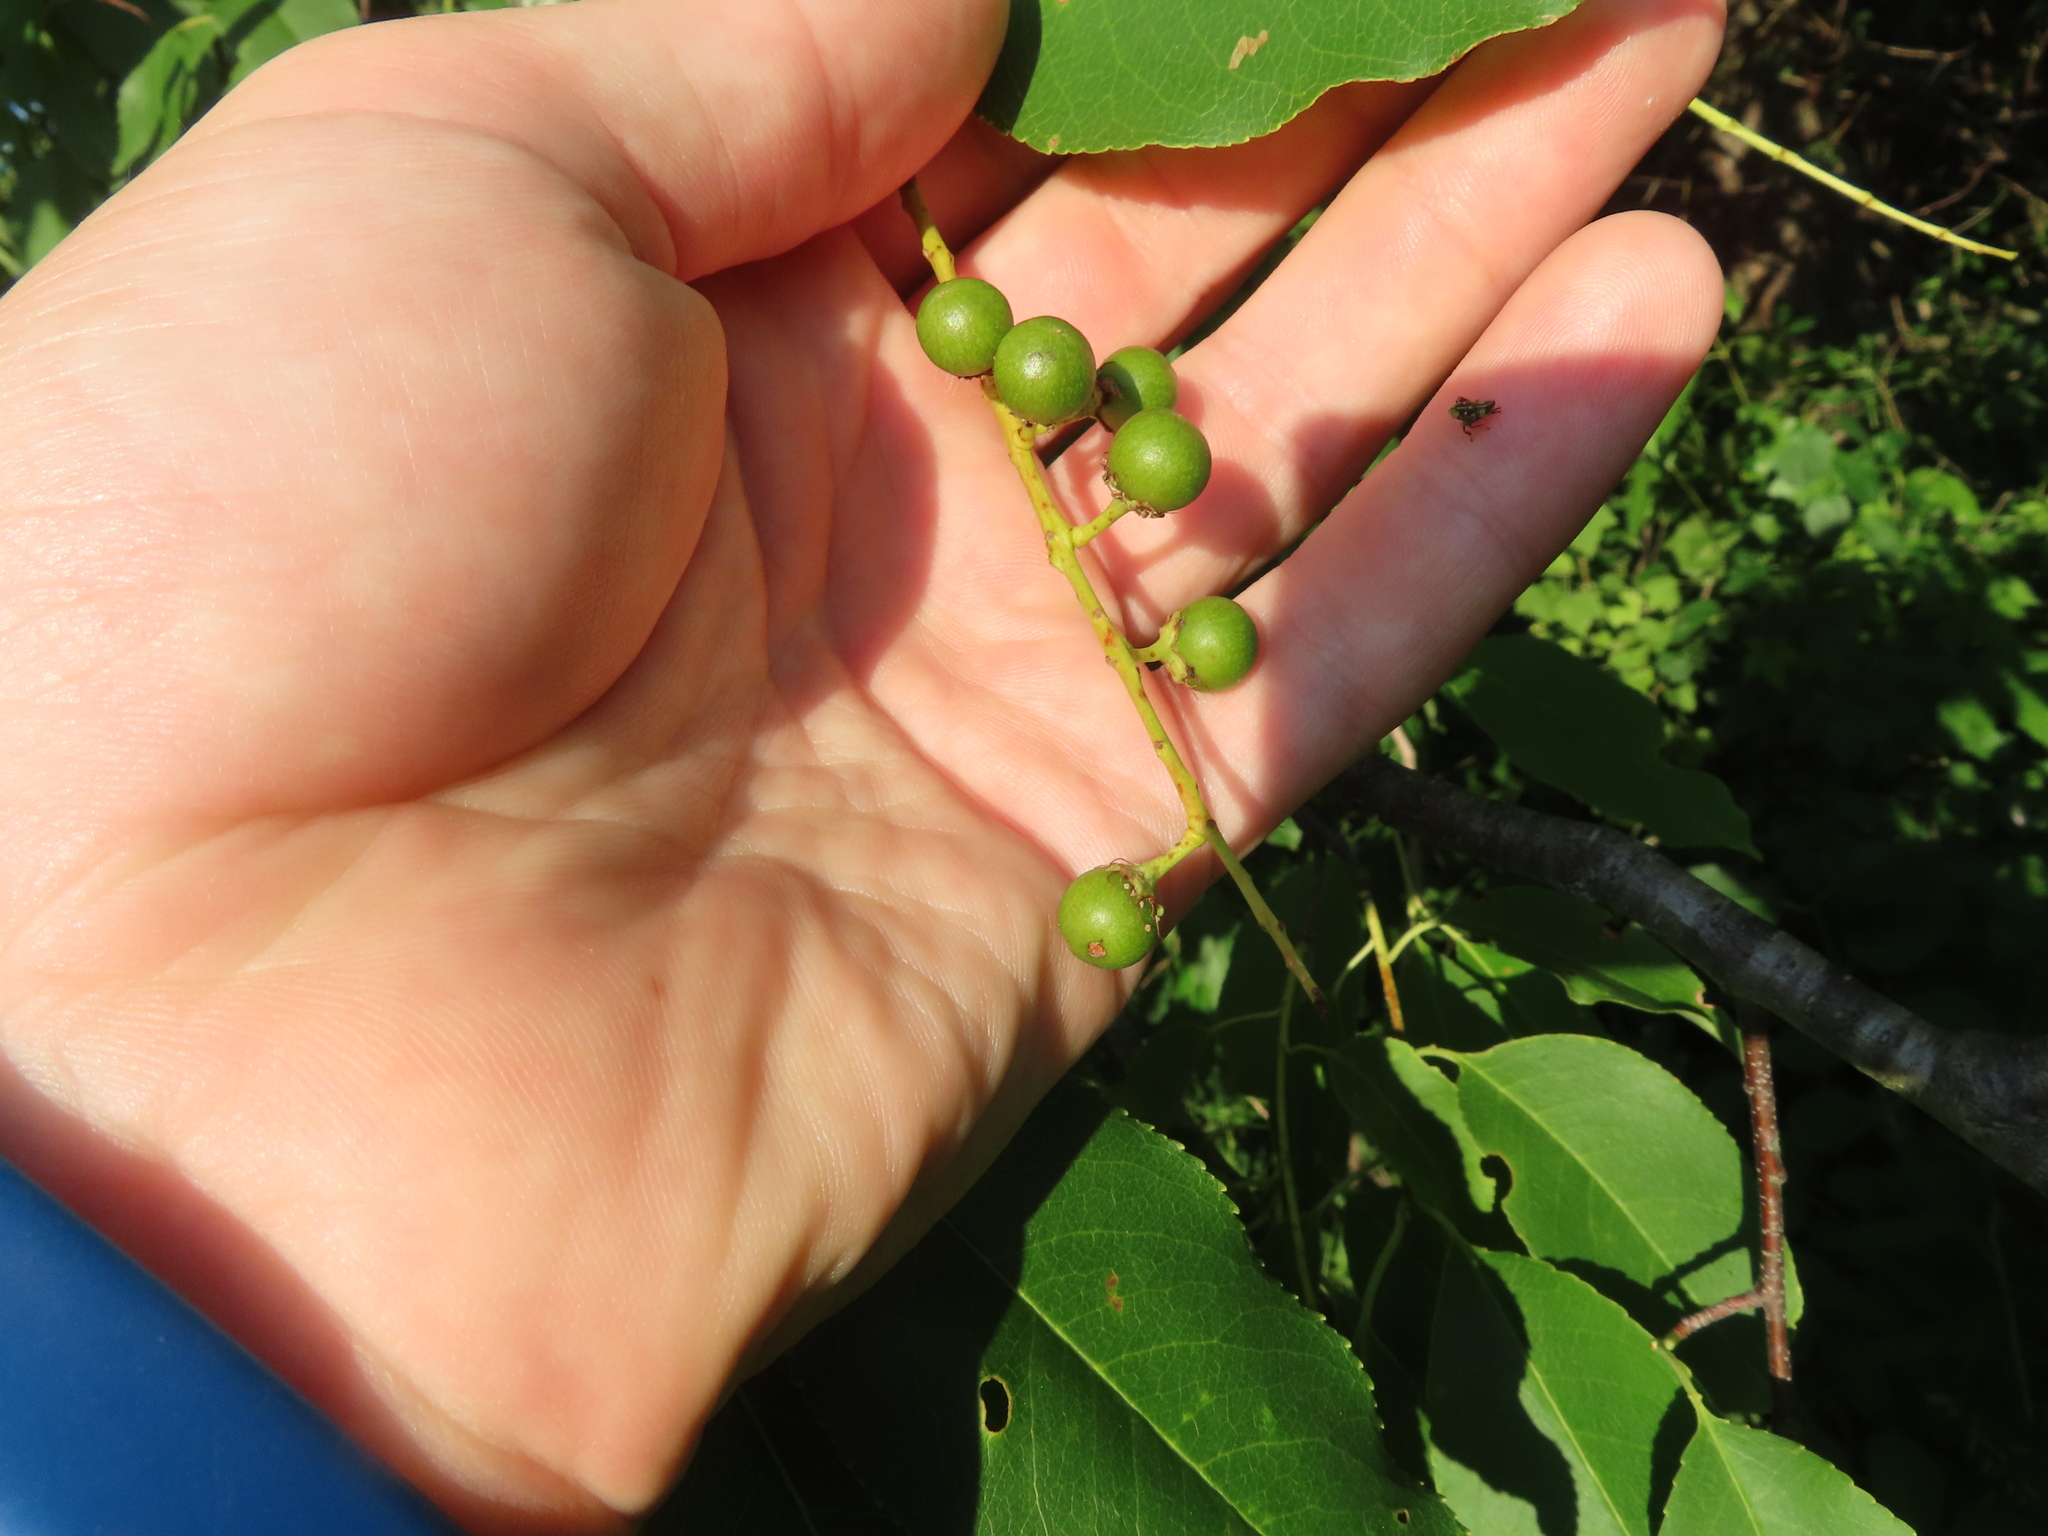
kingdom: Plantae
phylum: Tracheophyta
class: Magnoliopsida
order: Rosales
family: Rosaceae
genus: Prunus
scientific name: Prunus serotina
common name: Black cherry
